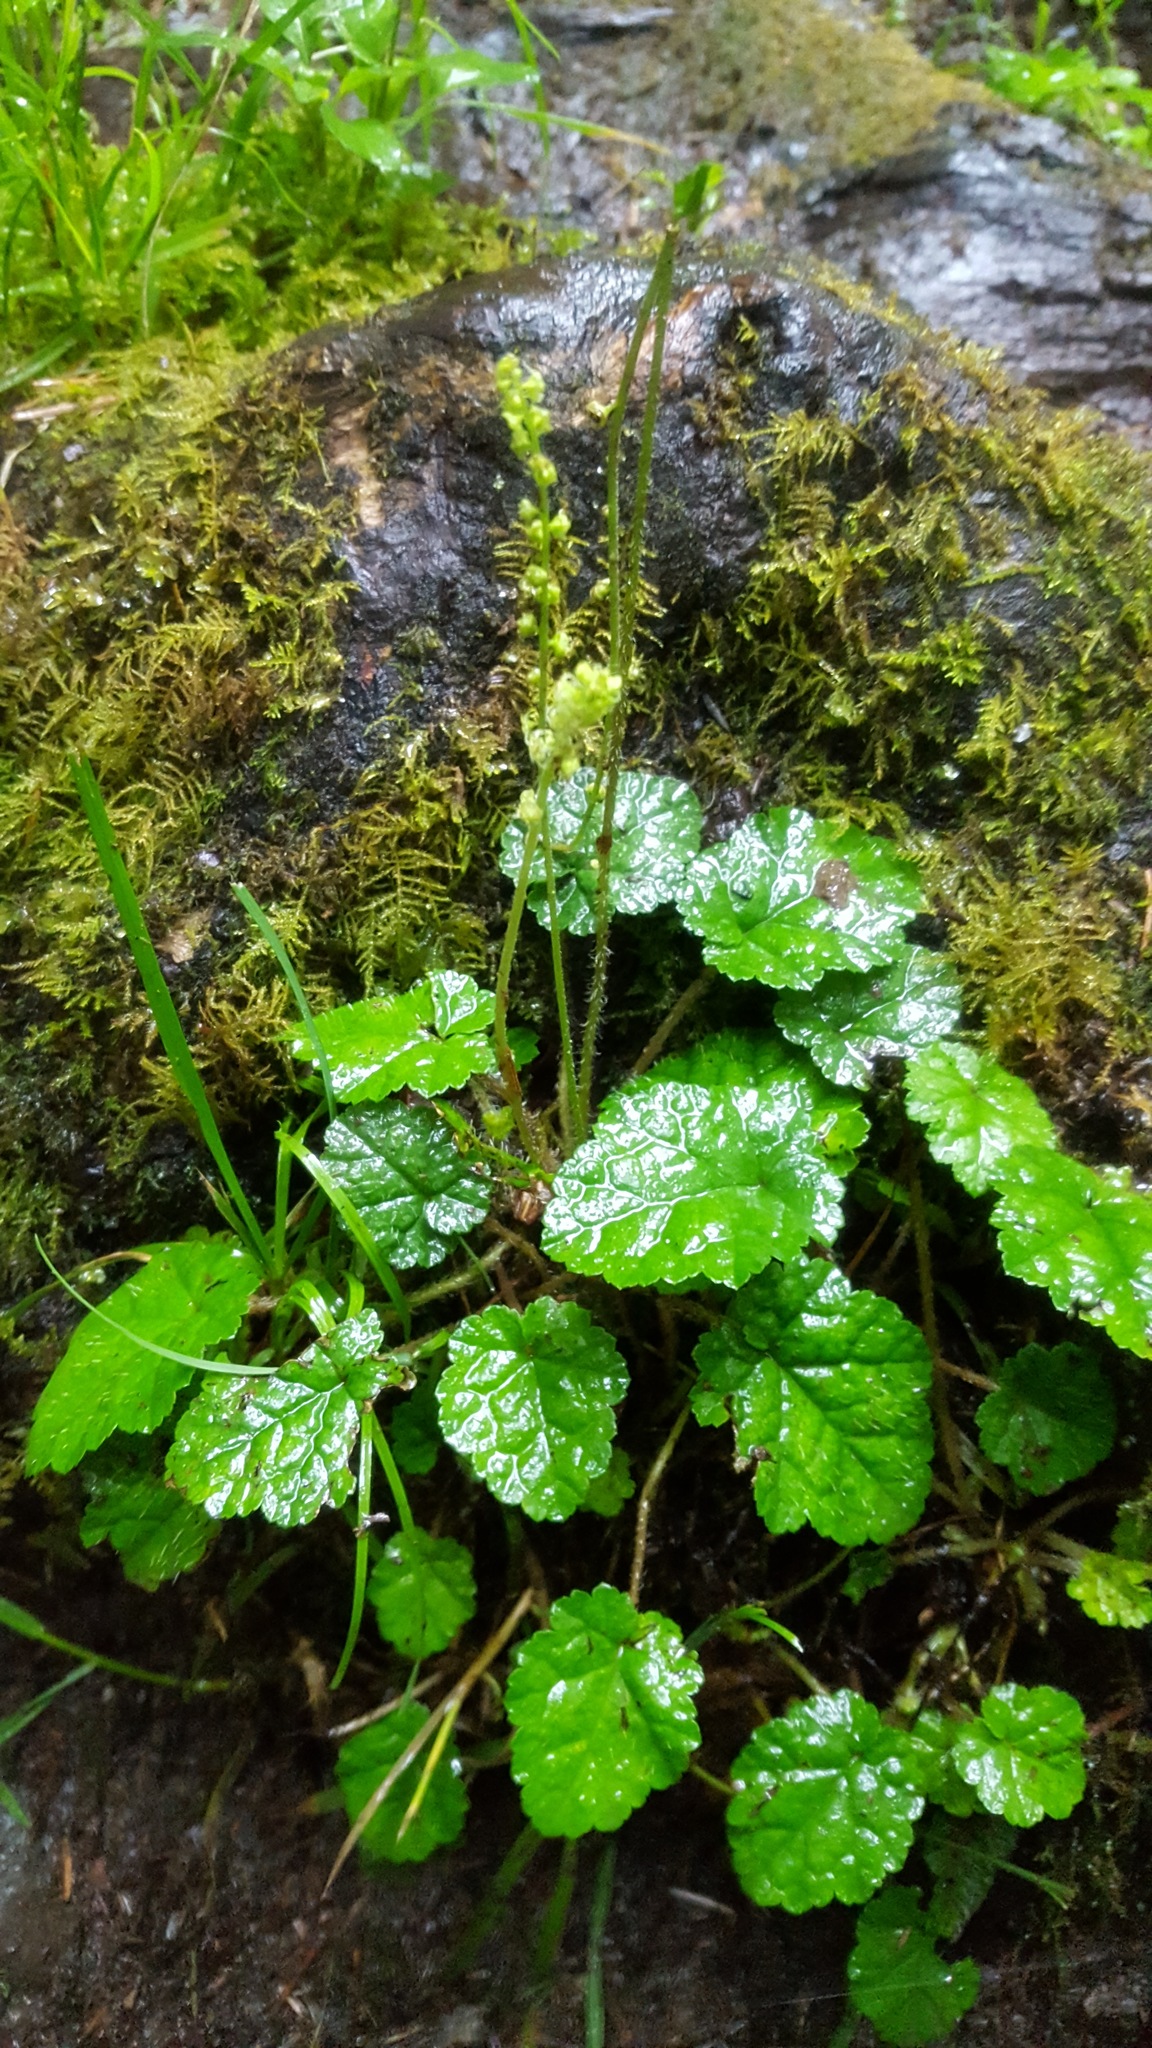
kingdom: Plantae
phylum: Tracheophyta
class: Magnoliopsida
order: Saxifragales
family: Saxifragaceae
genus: Brewerimitella
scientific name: Brewerimitella ovalis
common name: Coastal bishop's-cap
